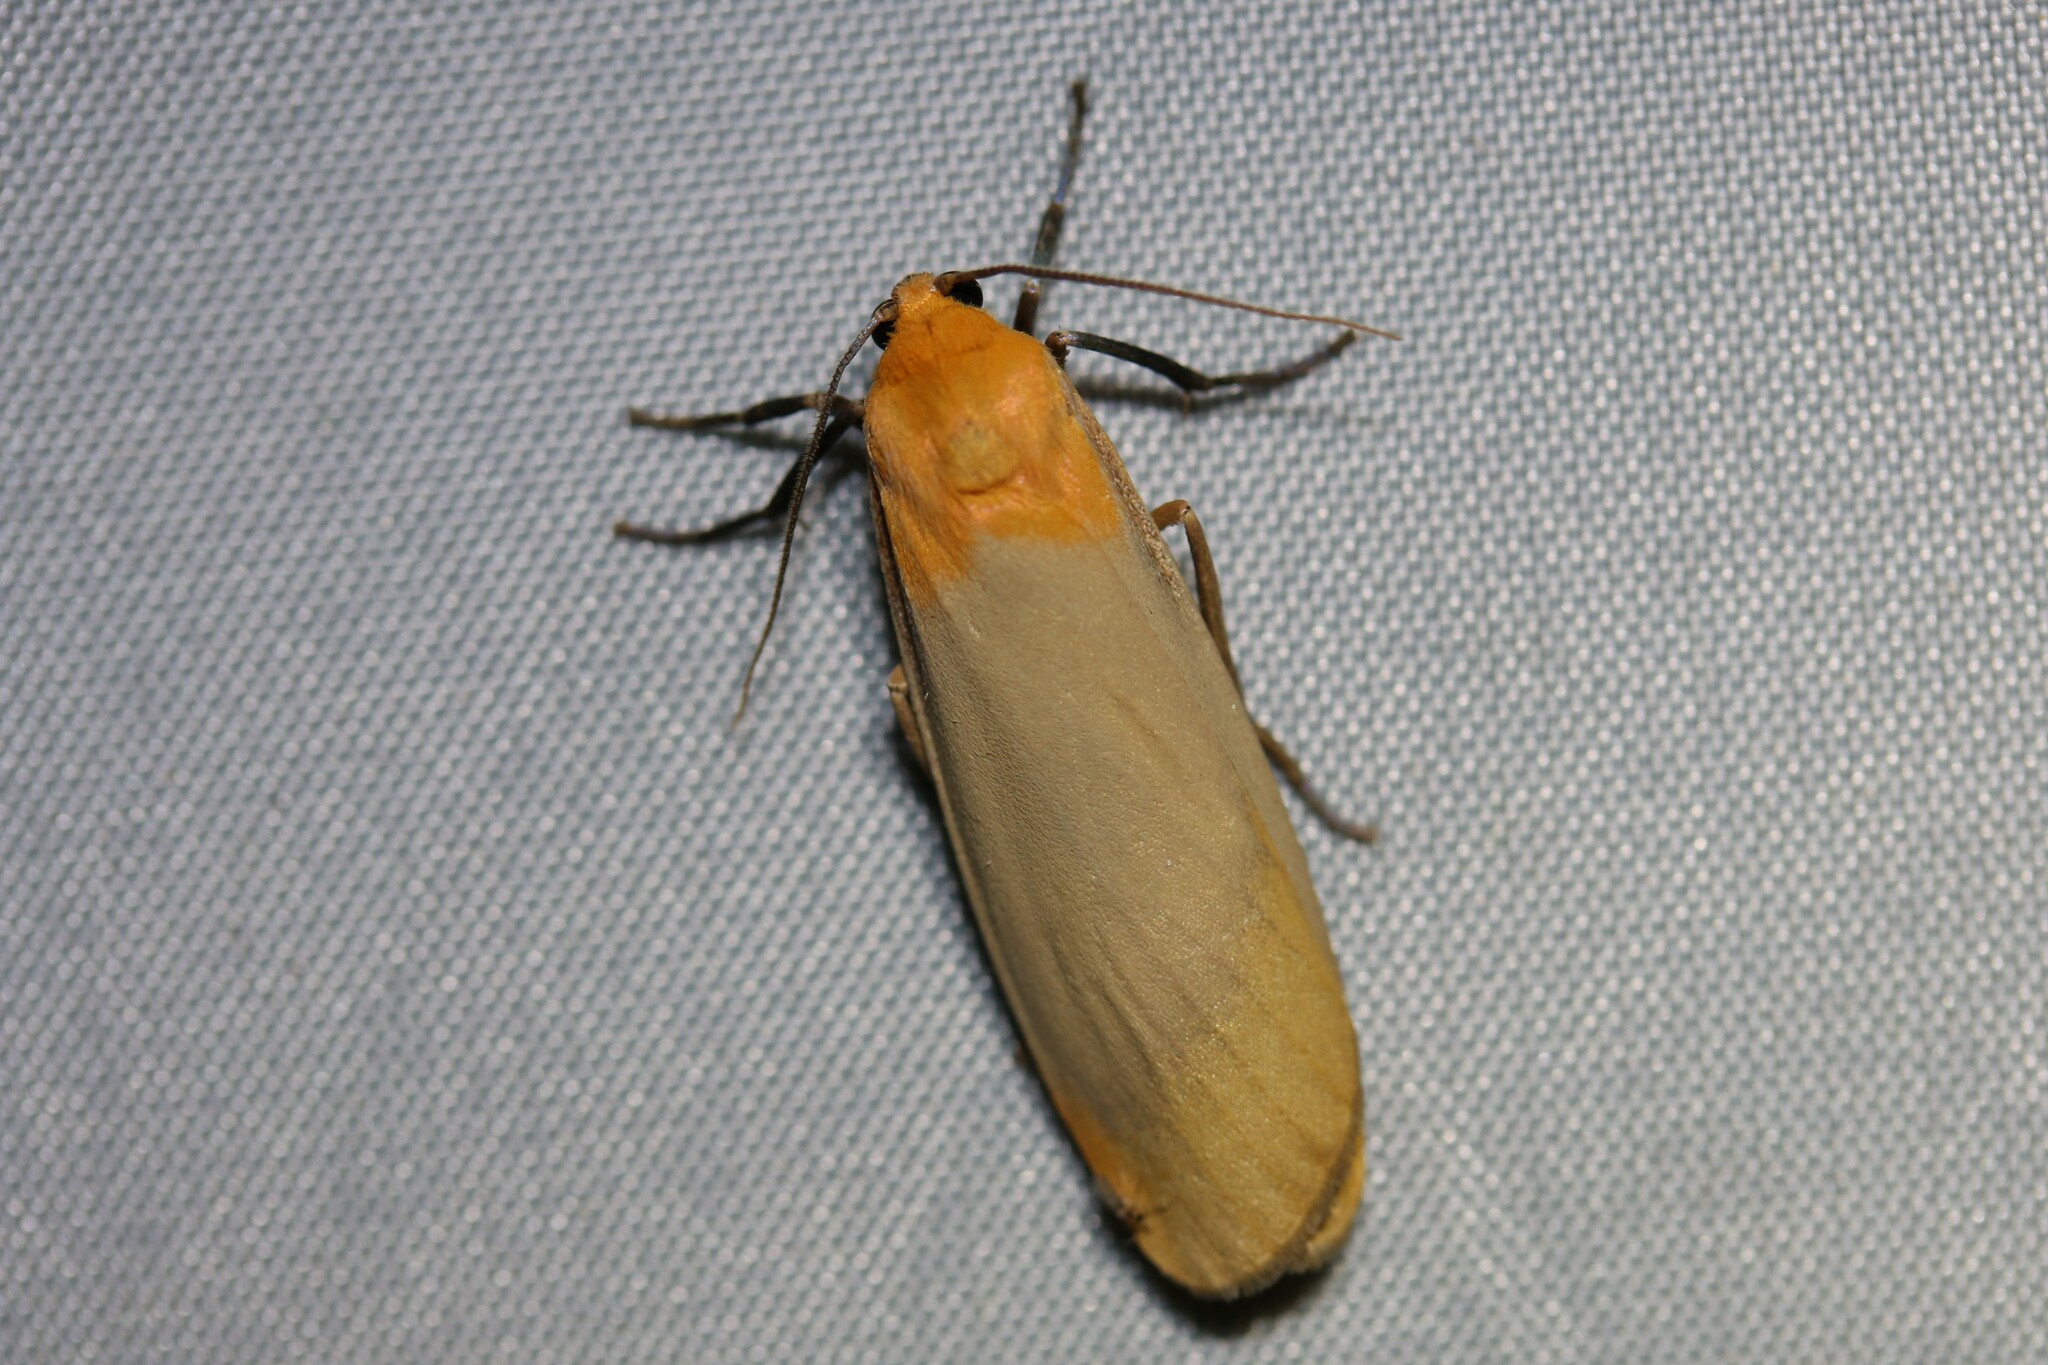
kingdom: Animalia
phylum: Arthropoda
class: Insecta
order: Lepidoptera
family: Erebidae
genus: Lithosia
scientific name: Lithosia quadra
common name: Four-spotted footman
